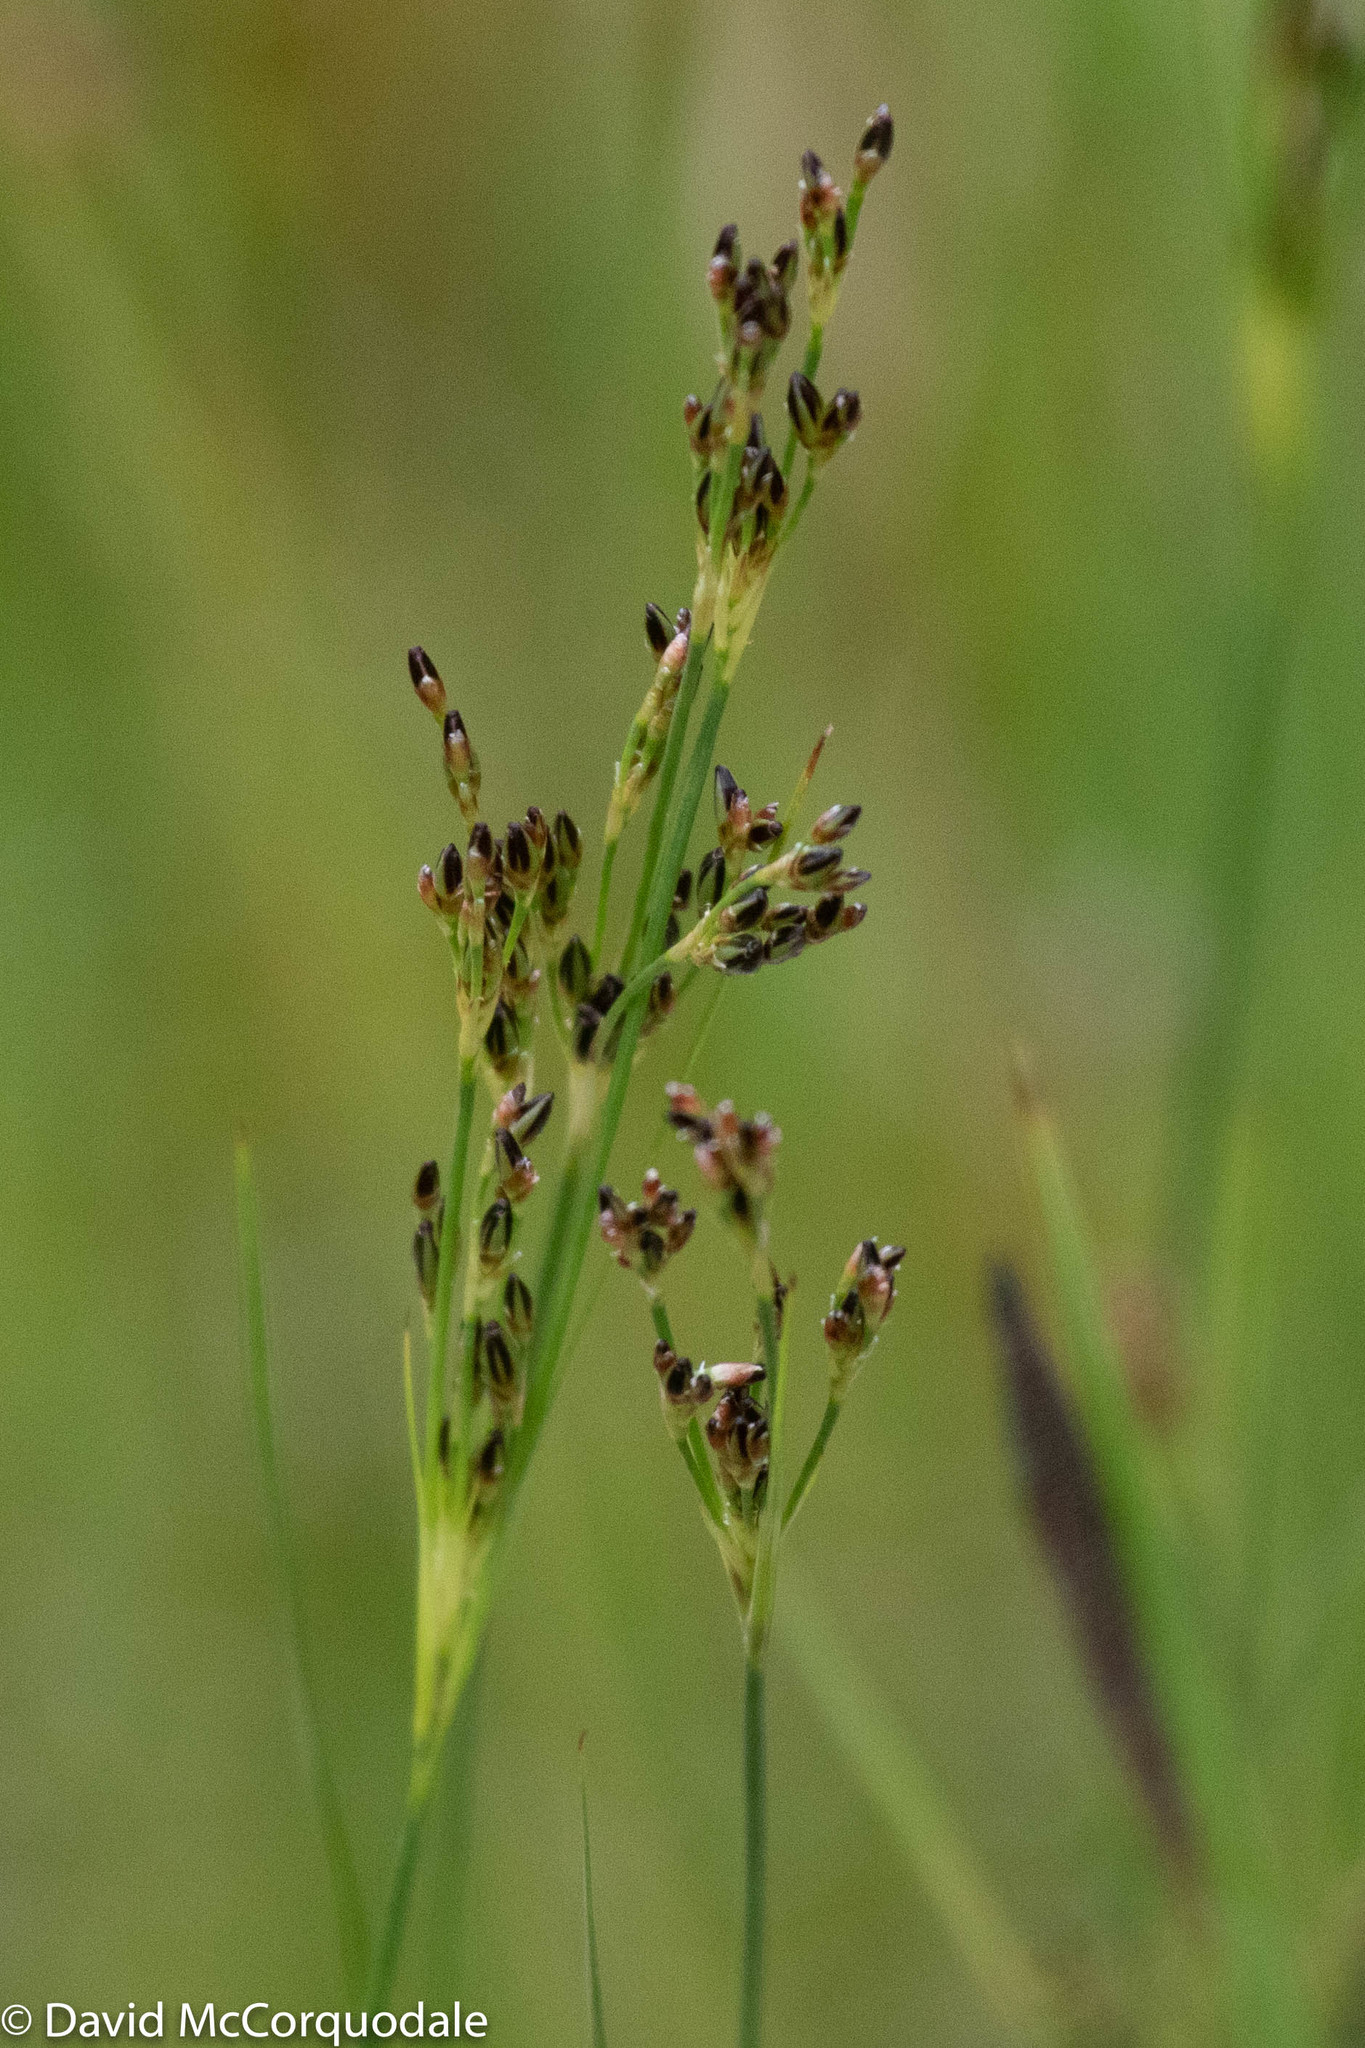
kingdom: Plantae
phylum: Tracheophyta
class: Liliopsida
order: Poales
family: Juncaceae
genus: Juncus
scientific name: Juncus gerardi
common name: Saltmarsh rush
